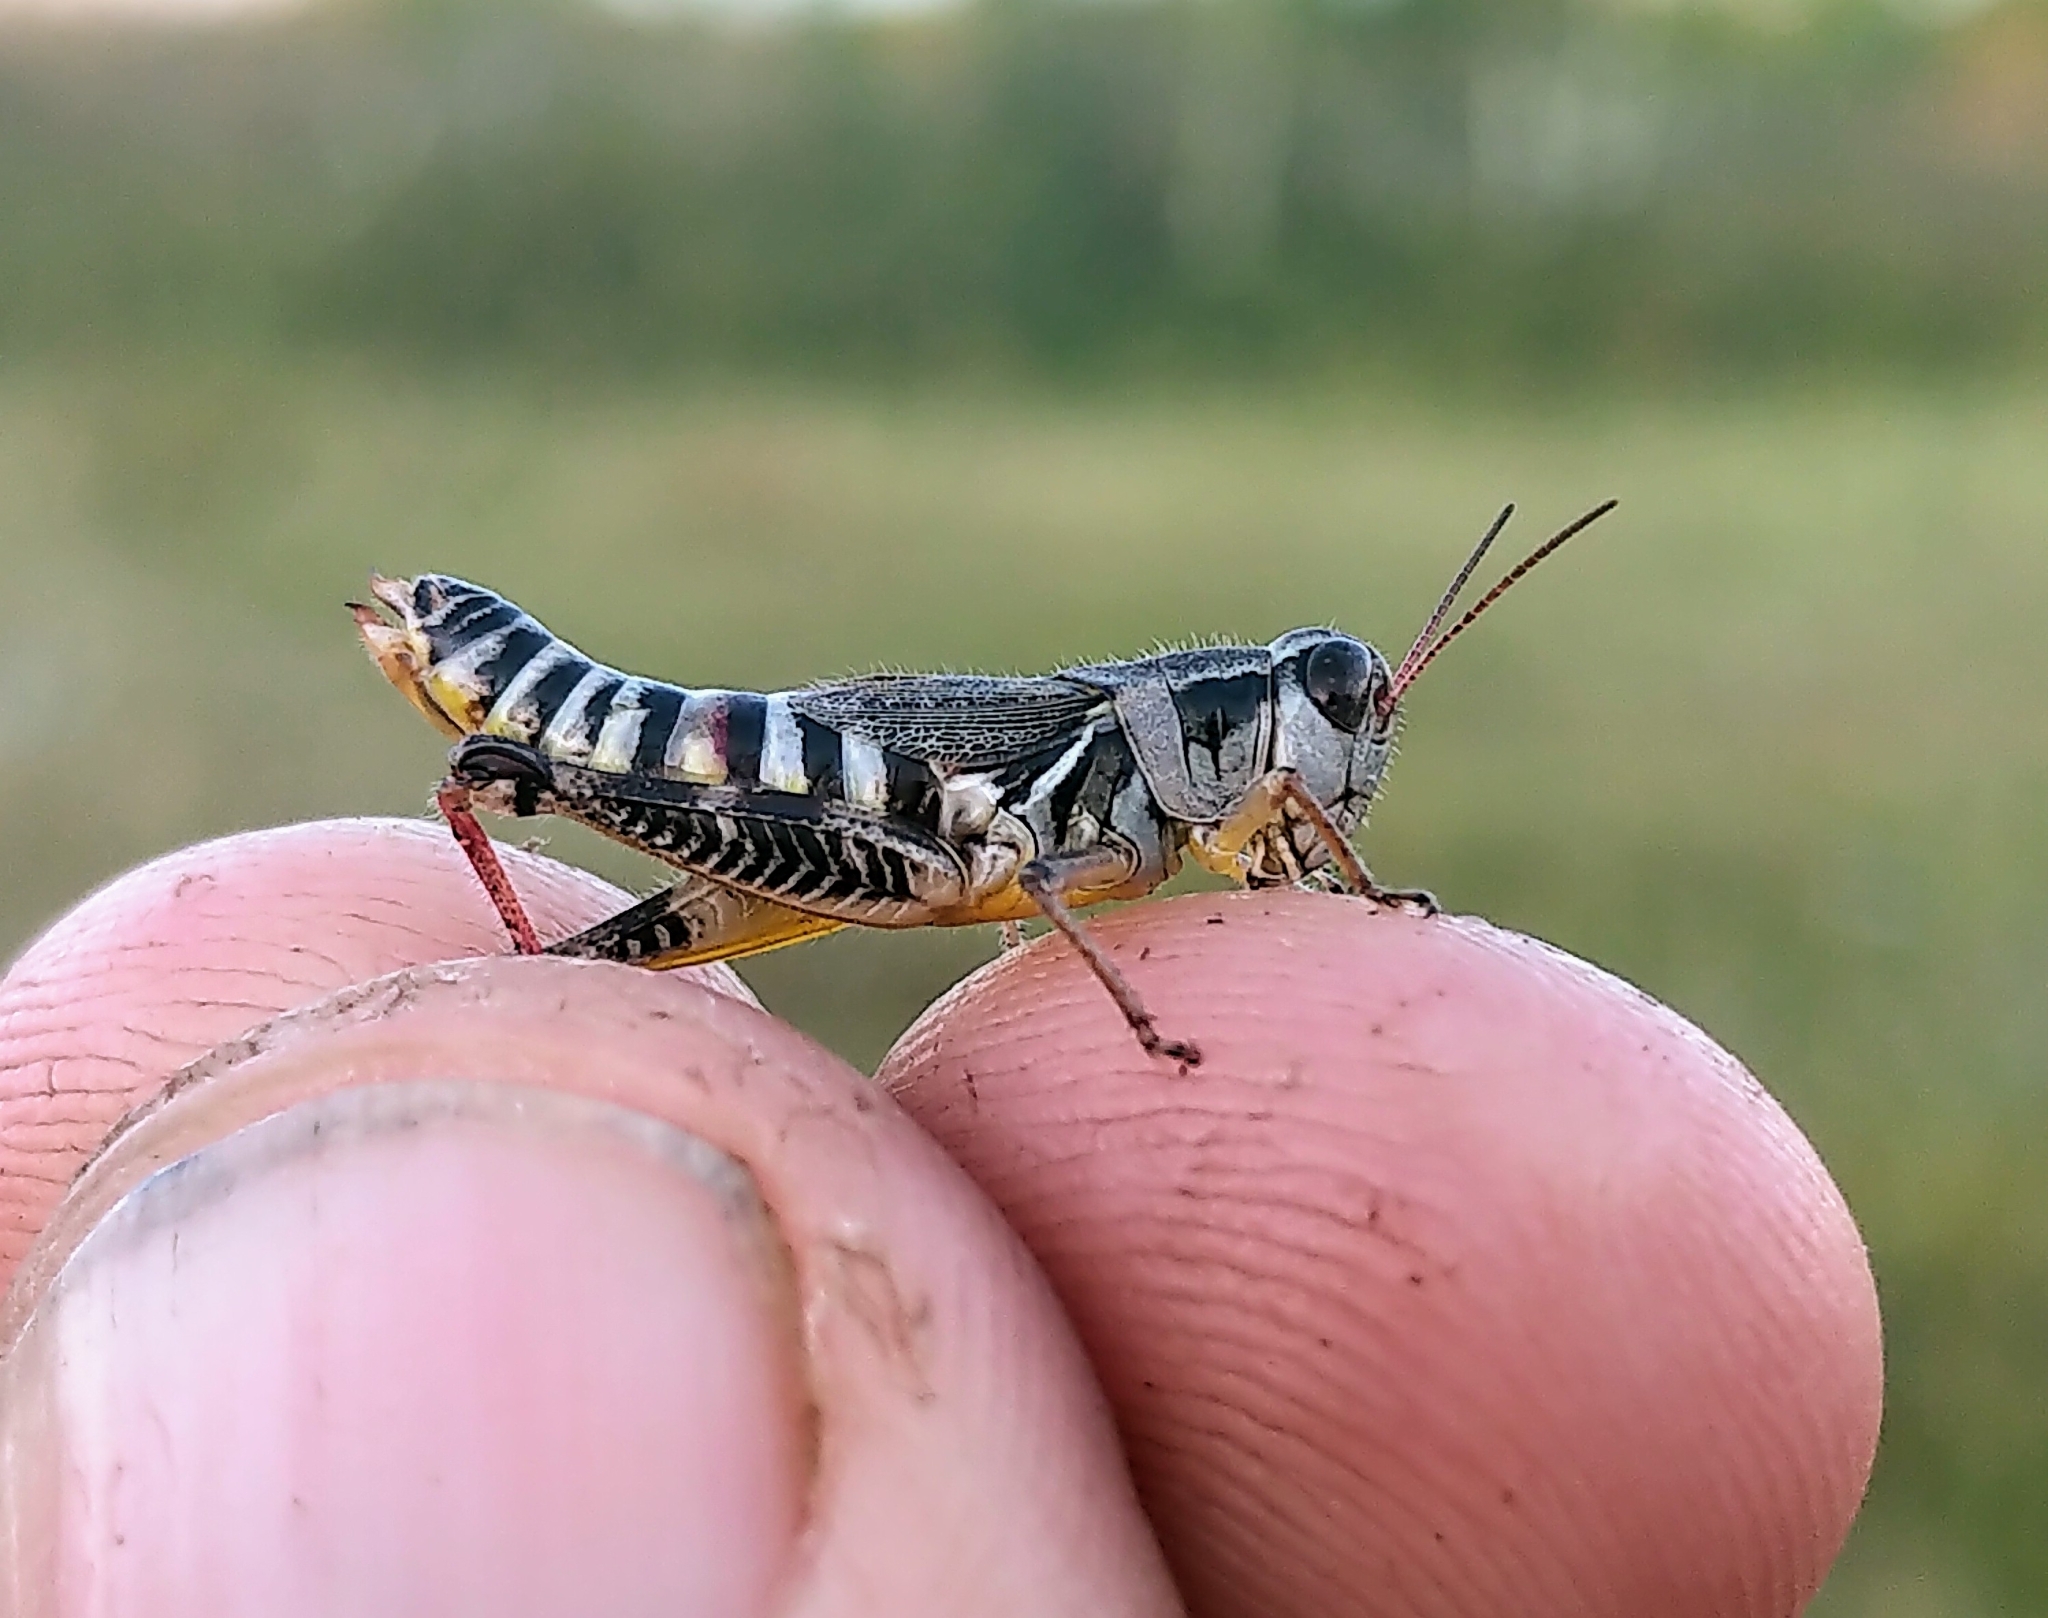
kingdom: Animalia
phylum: Arthropoda
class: Insecta
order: Orthoptera
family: Acrididae
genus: Melanoplus
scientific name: Melanoplus dawsoni
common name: Dawson grasshopper
